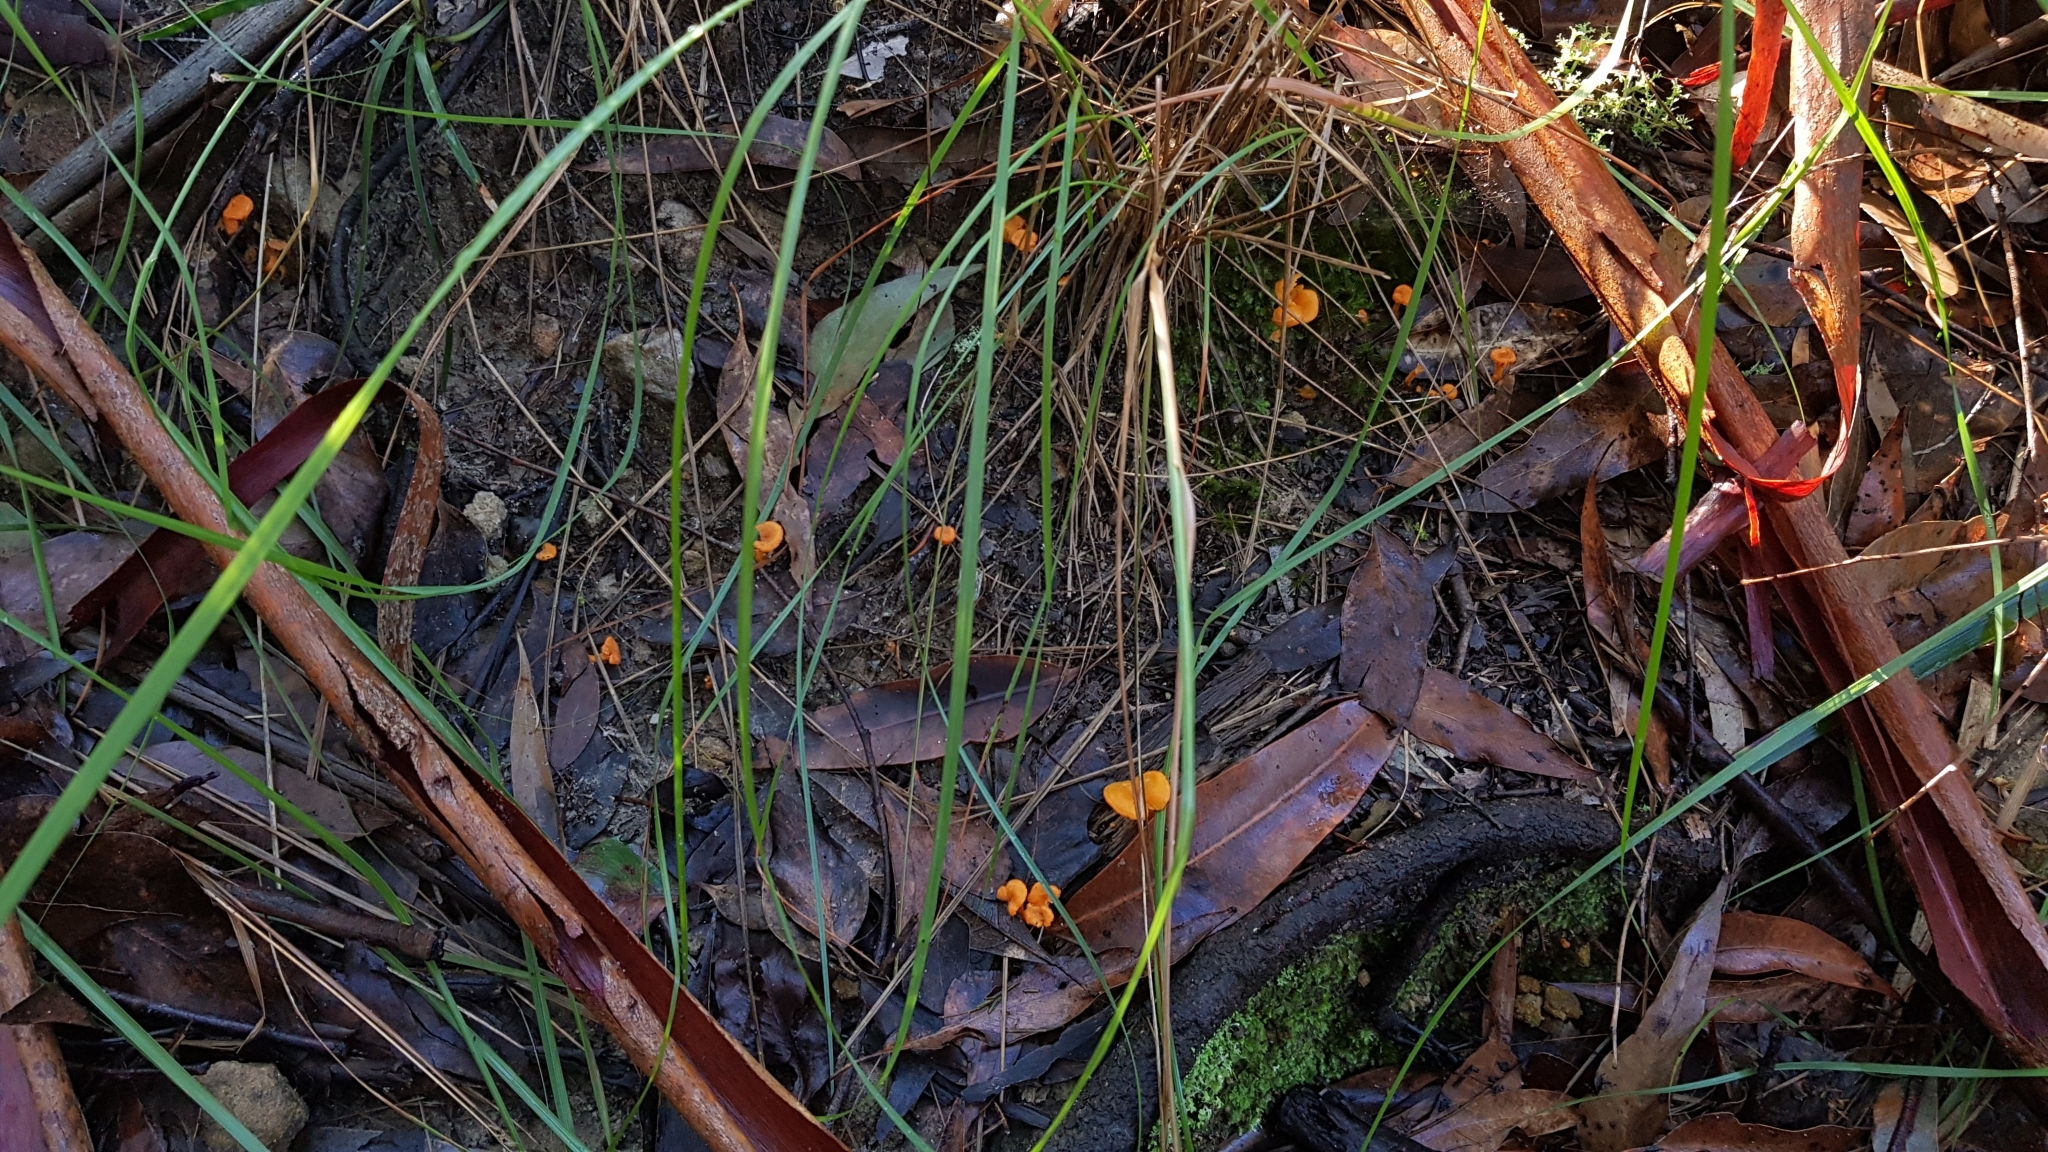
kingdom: Fungi
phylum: Basidiomycota
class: Agaricomycetes
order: Cantharellales
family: Hydnaceae
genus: Cantharellus
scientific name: Cantharellus
